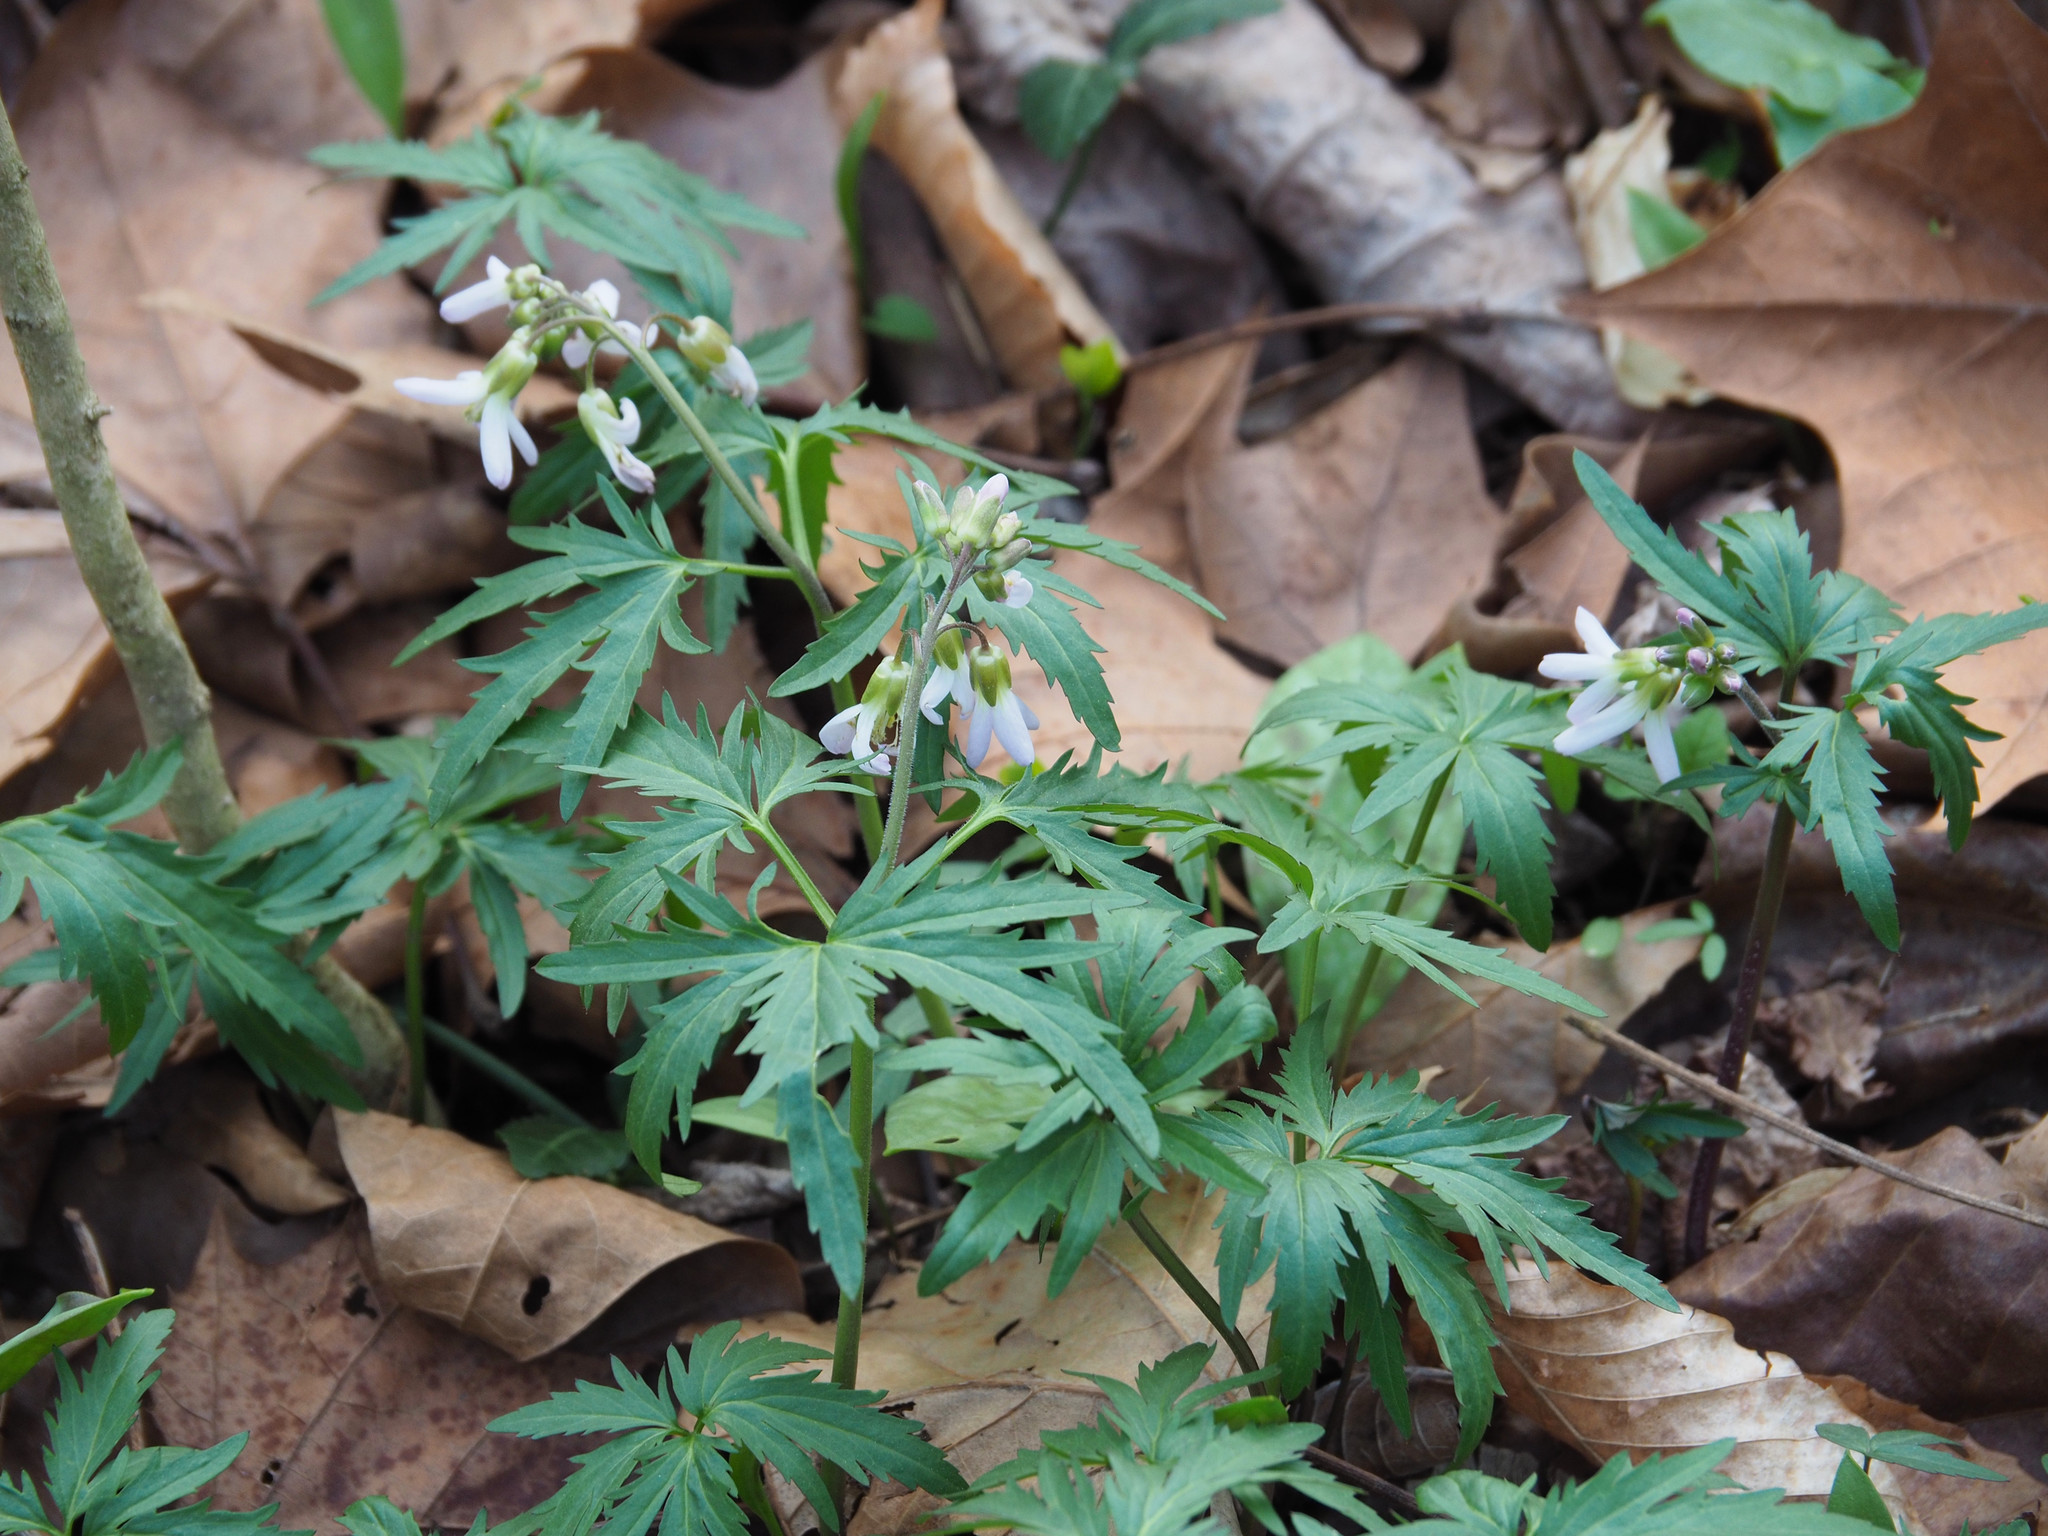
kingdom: Plantae
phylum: Tracheophyta
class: Magnoliopsida
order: Brassicales
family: Brassicaceae
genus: Cardamine
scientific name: Cardamine concatenata
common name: Cut-leaf toothcup
